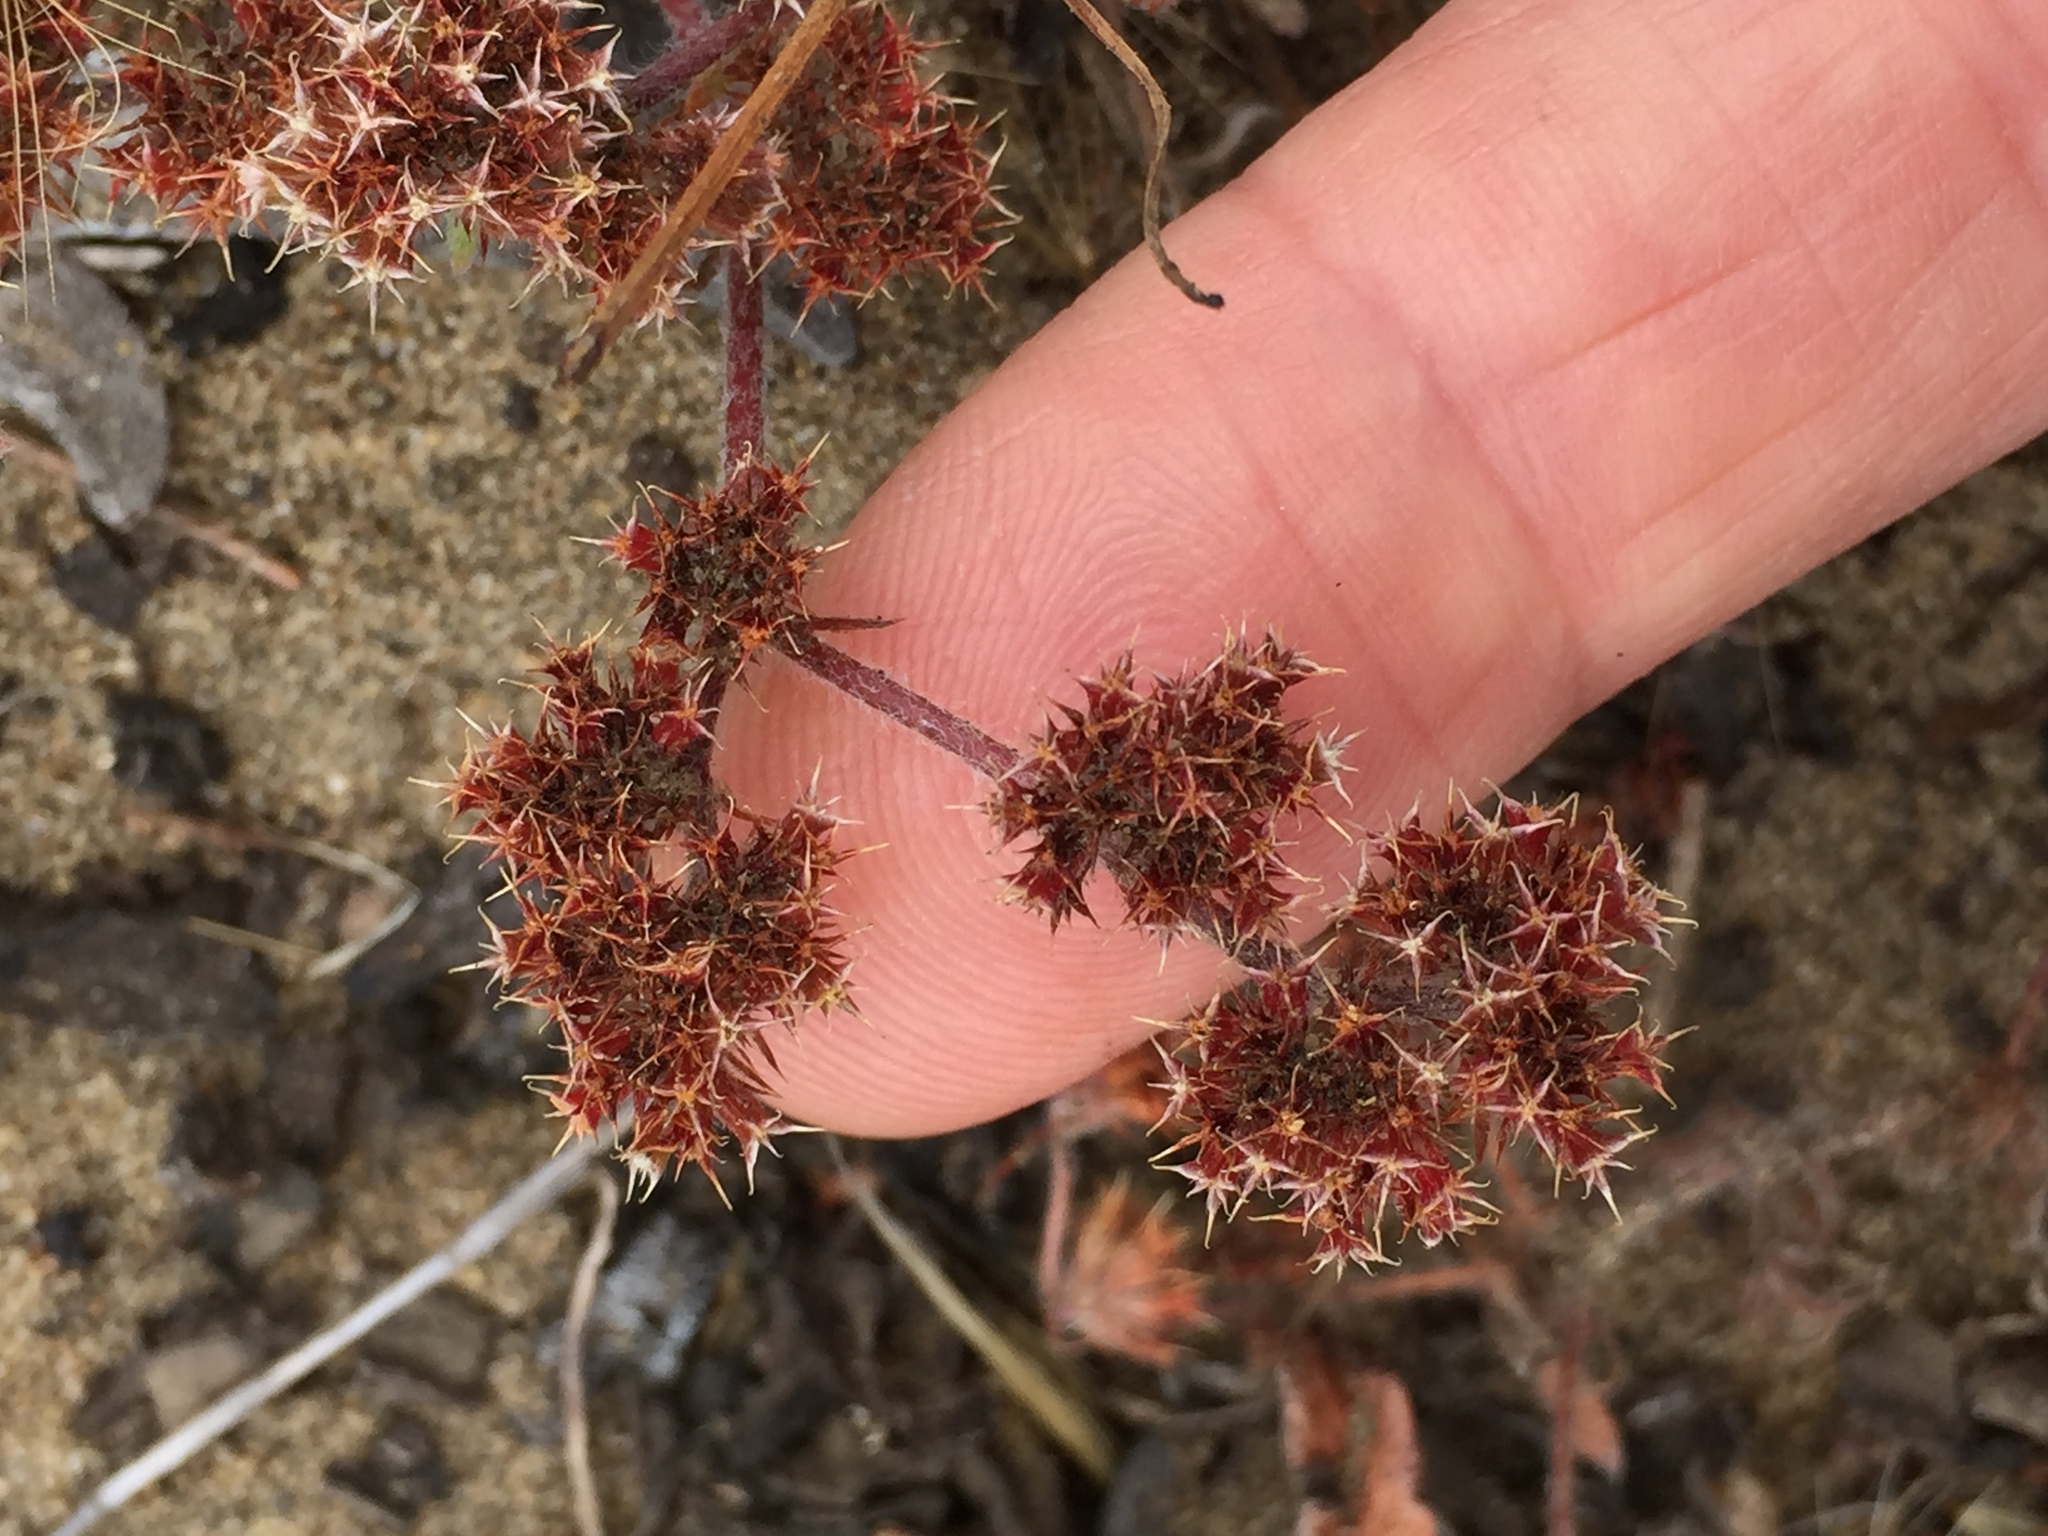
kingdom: Plantae
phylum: Tracheophyta
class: Magnoliopsida
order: Caryophyllales
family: Polygonaceae
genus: Chorizanthe
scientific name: Chorizanthe cuspidata
